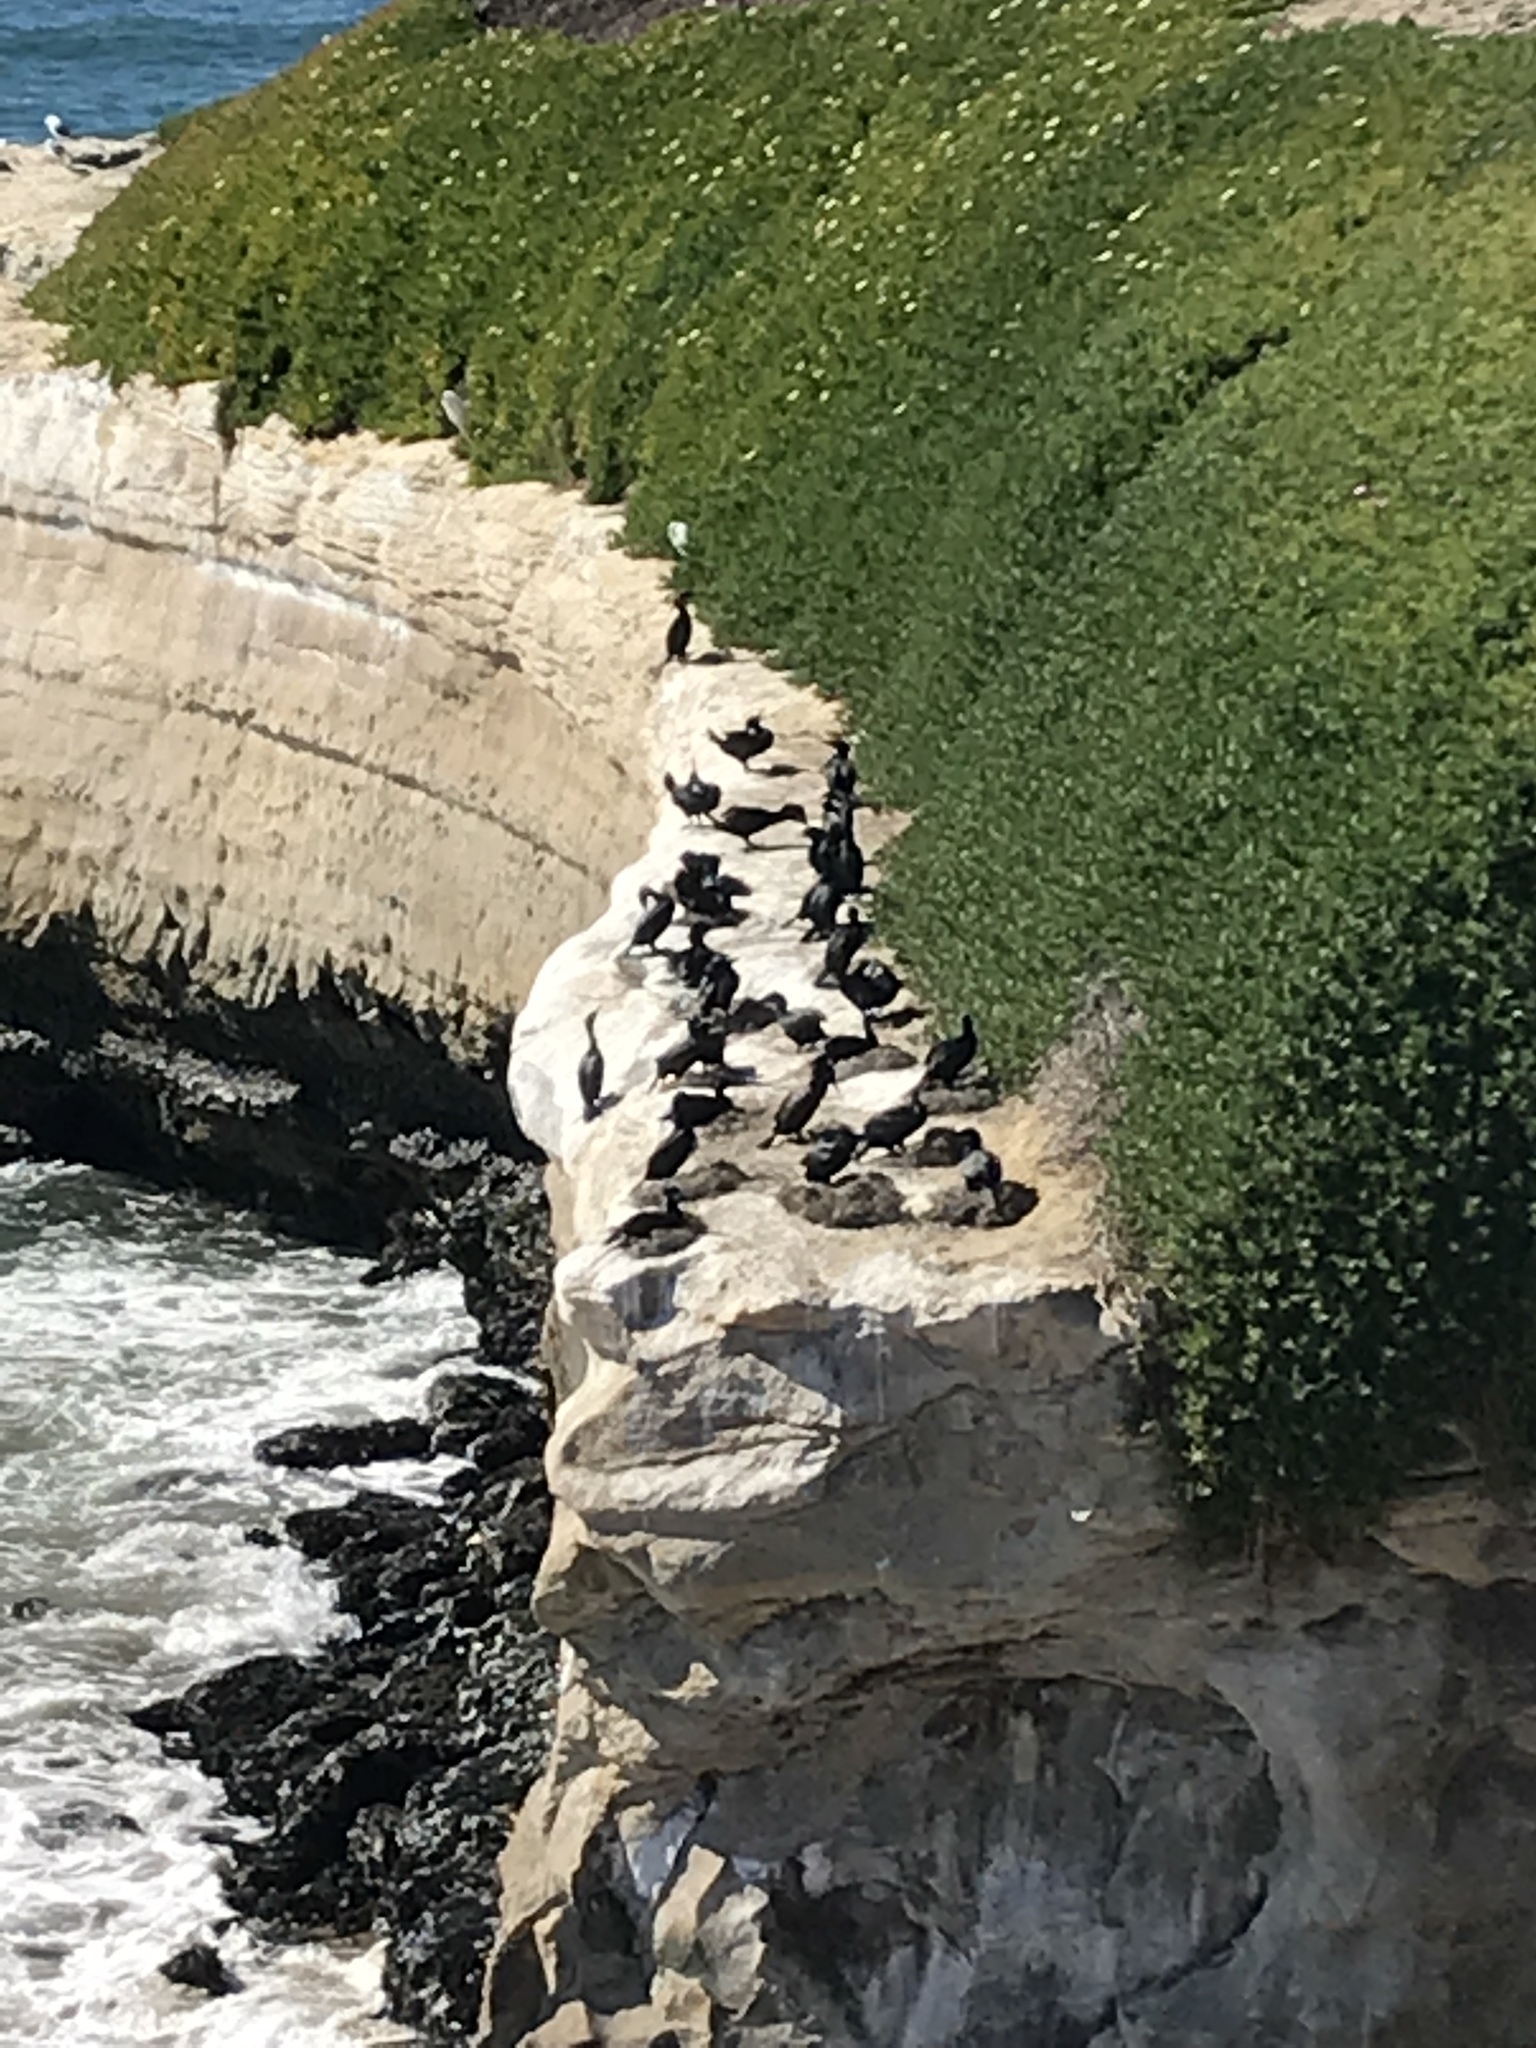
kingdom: Animalia
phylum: Chordata
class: Aves
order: Suliformes
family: Phalacrocoracidae
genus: Urile
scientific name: Urile penicillatus
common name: Brandt's cormorant
